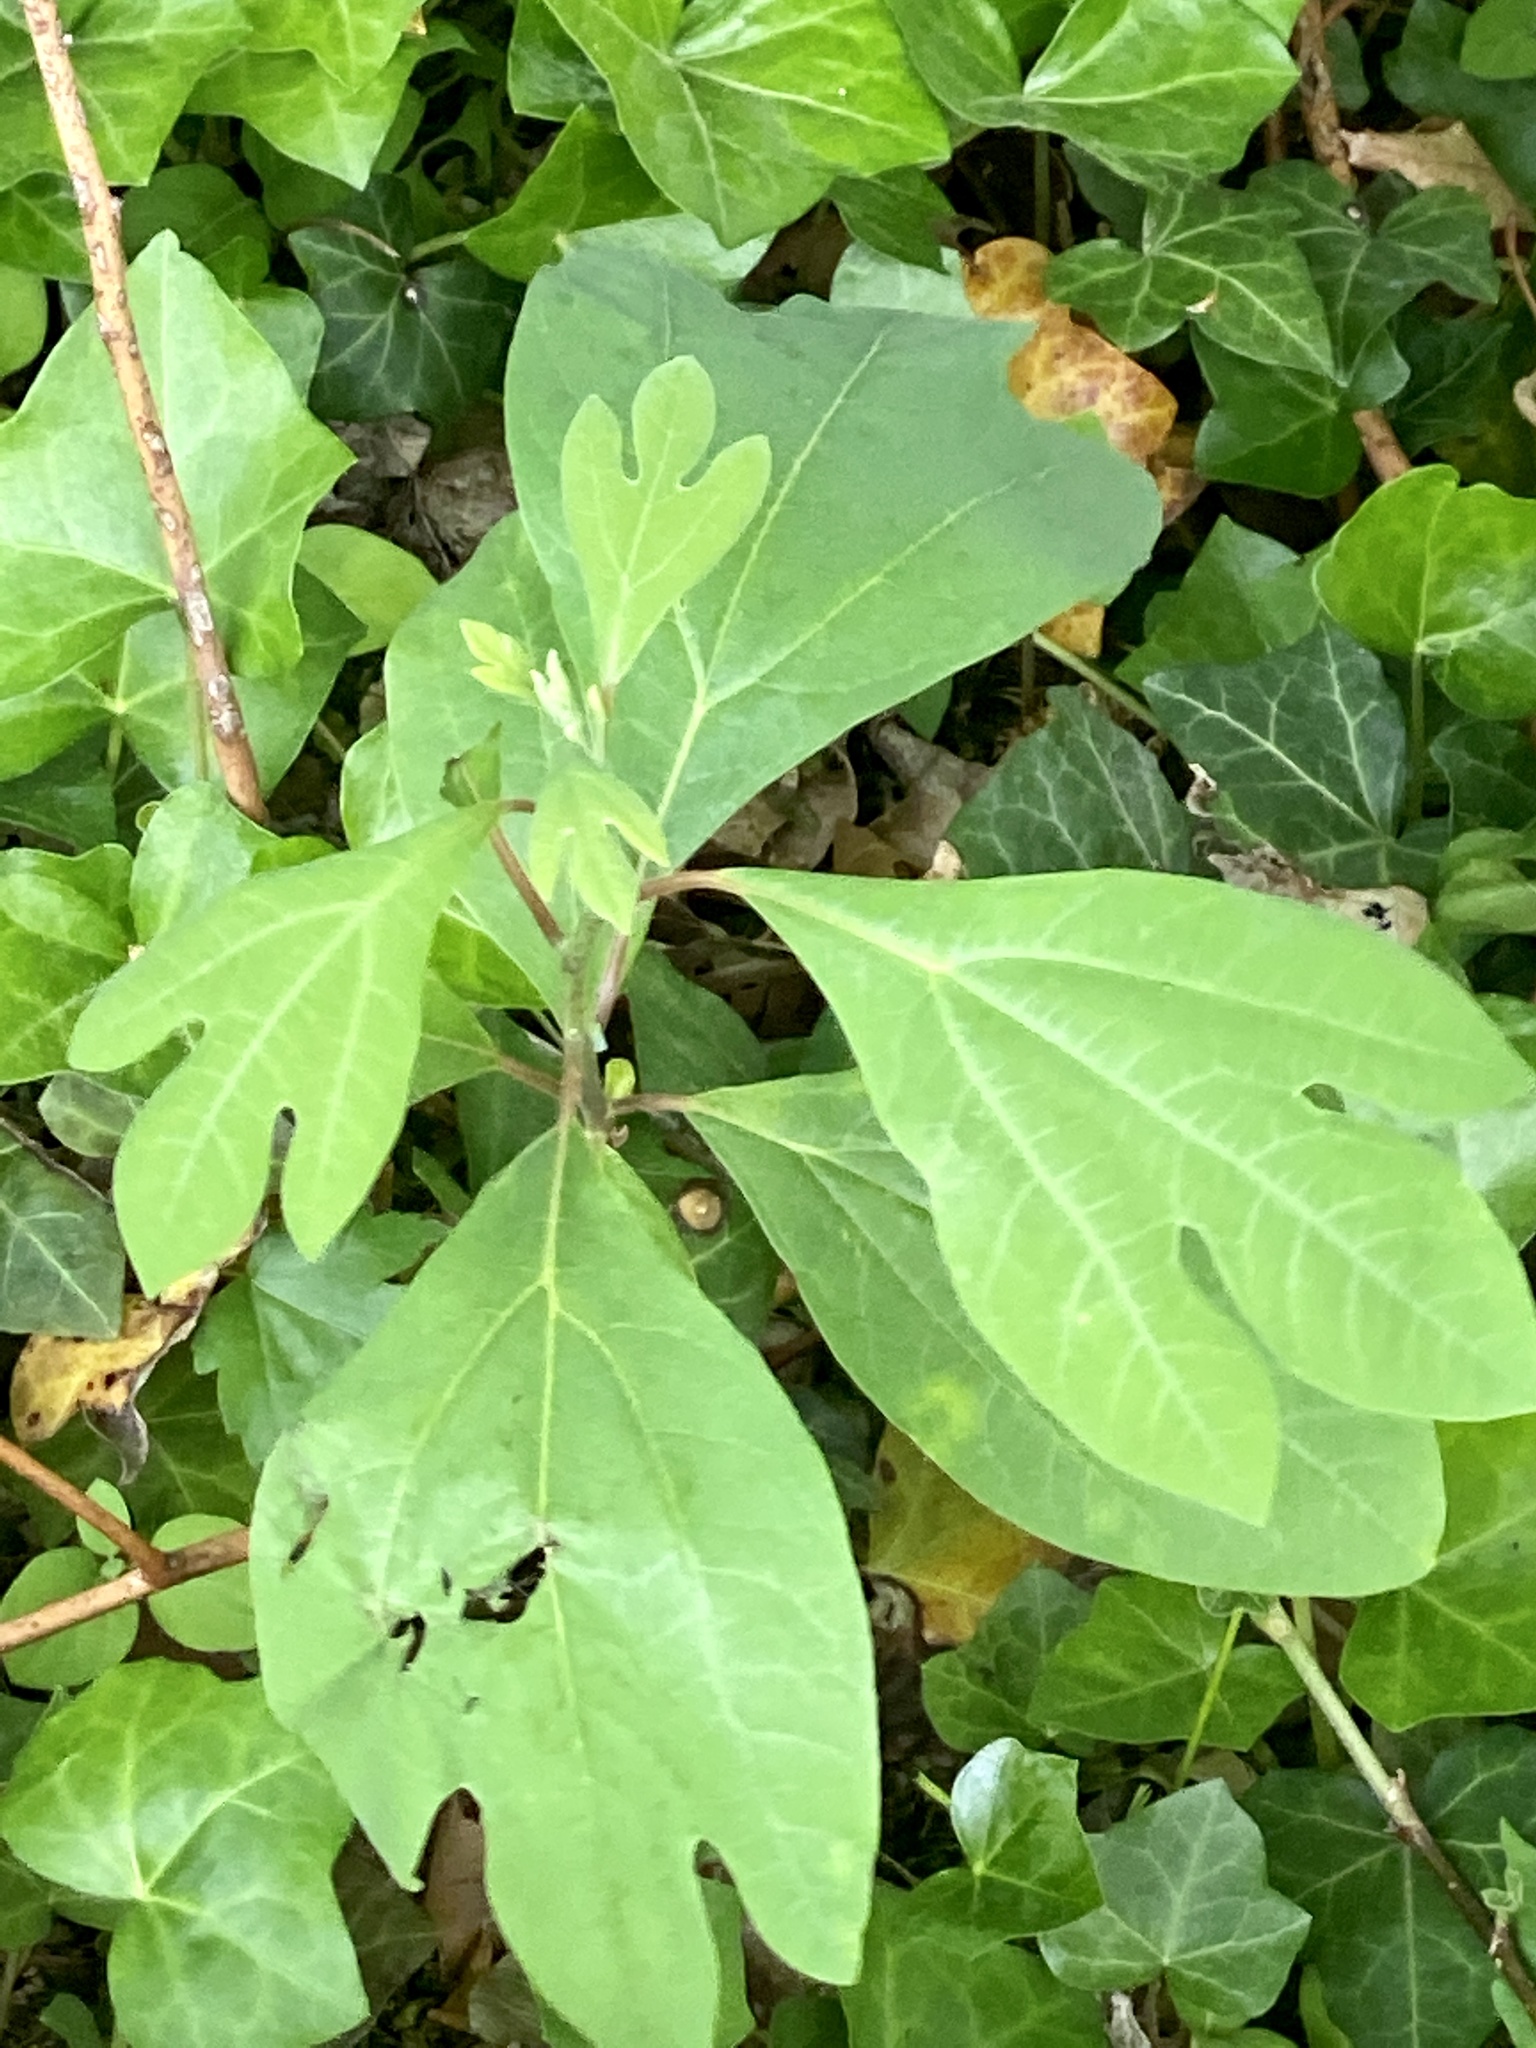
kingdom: Plantae
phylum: Tracheophyta
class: Magnoliopsida
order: Laurales
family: Lauraceae
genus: Sassafras
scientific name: Sassafras albidum
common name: Sassafras
